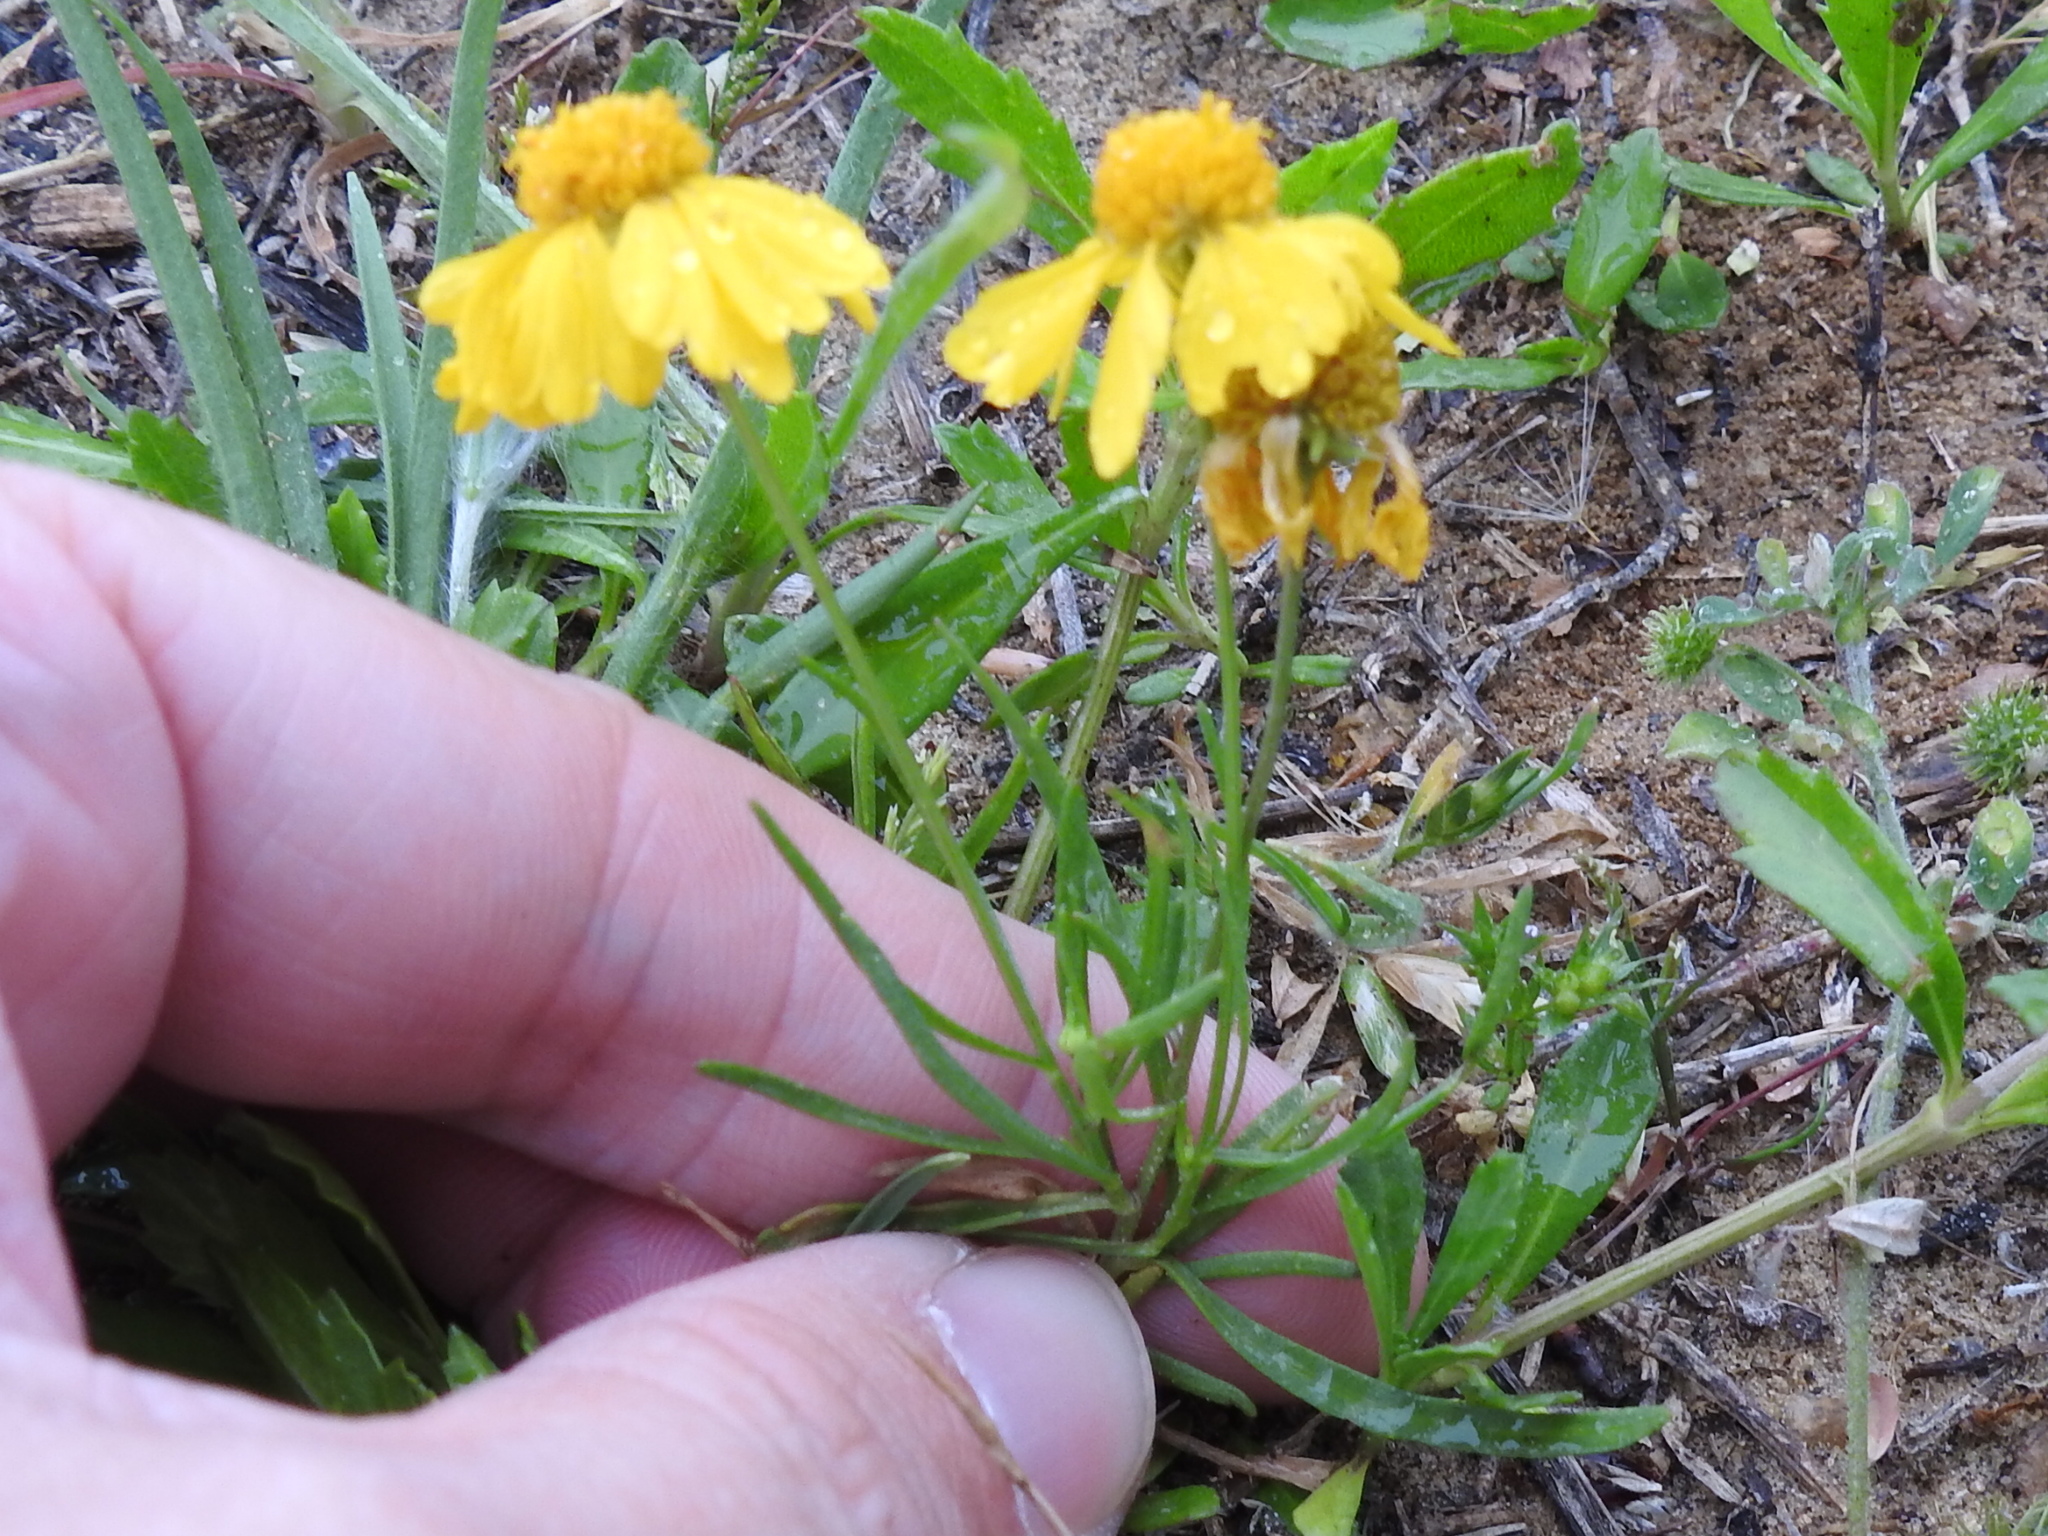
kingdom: Plantae
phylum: Tracheophyta
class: Magnoliopsida
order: Asterales
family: Asteraceae
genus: Helenium
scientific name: Helenium amarum
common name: Bitter sneezeweed
